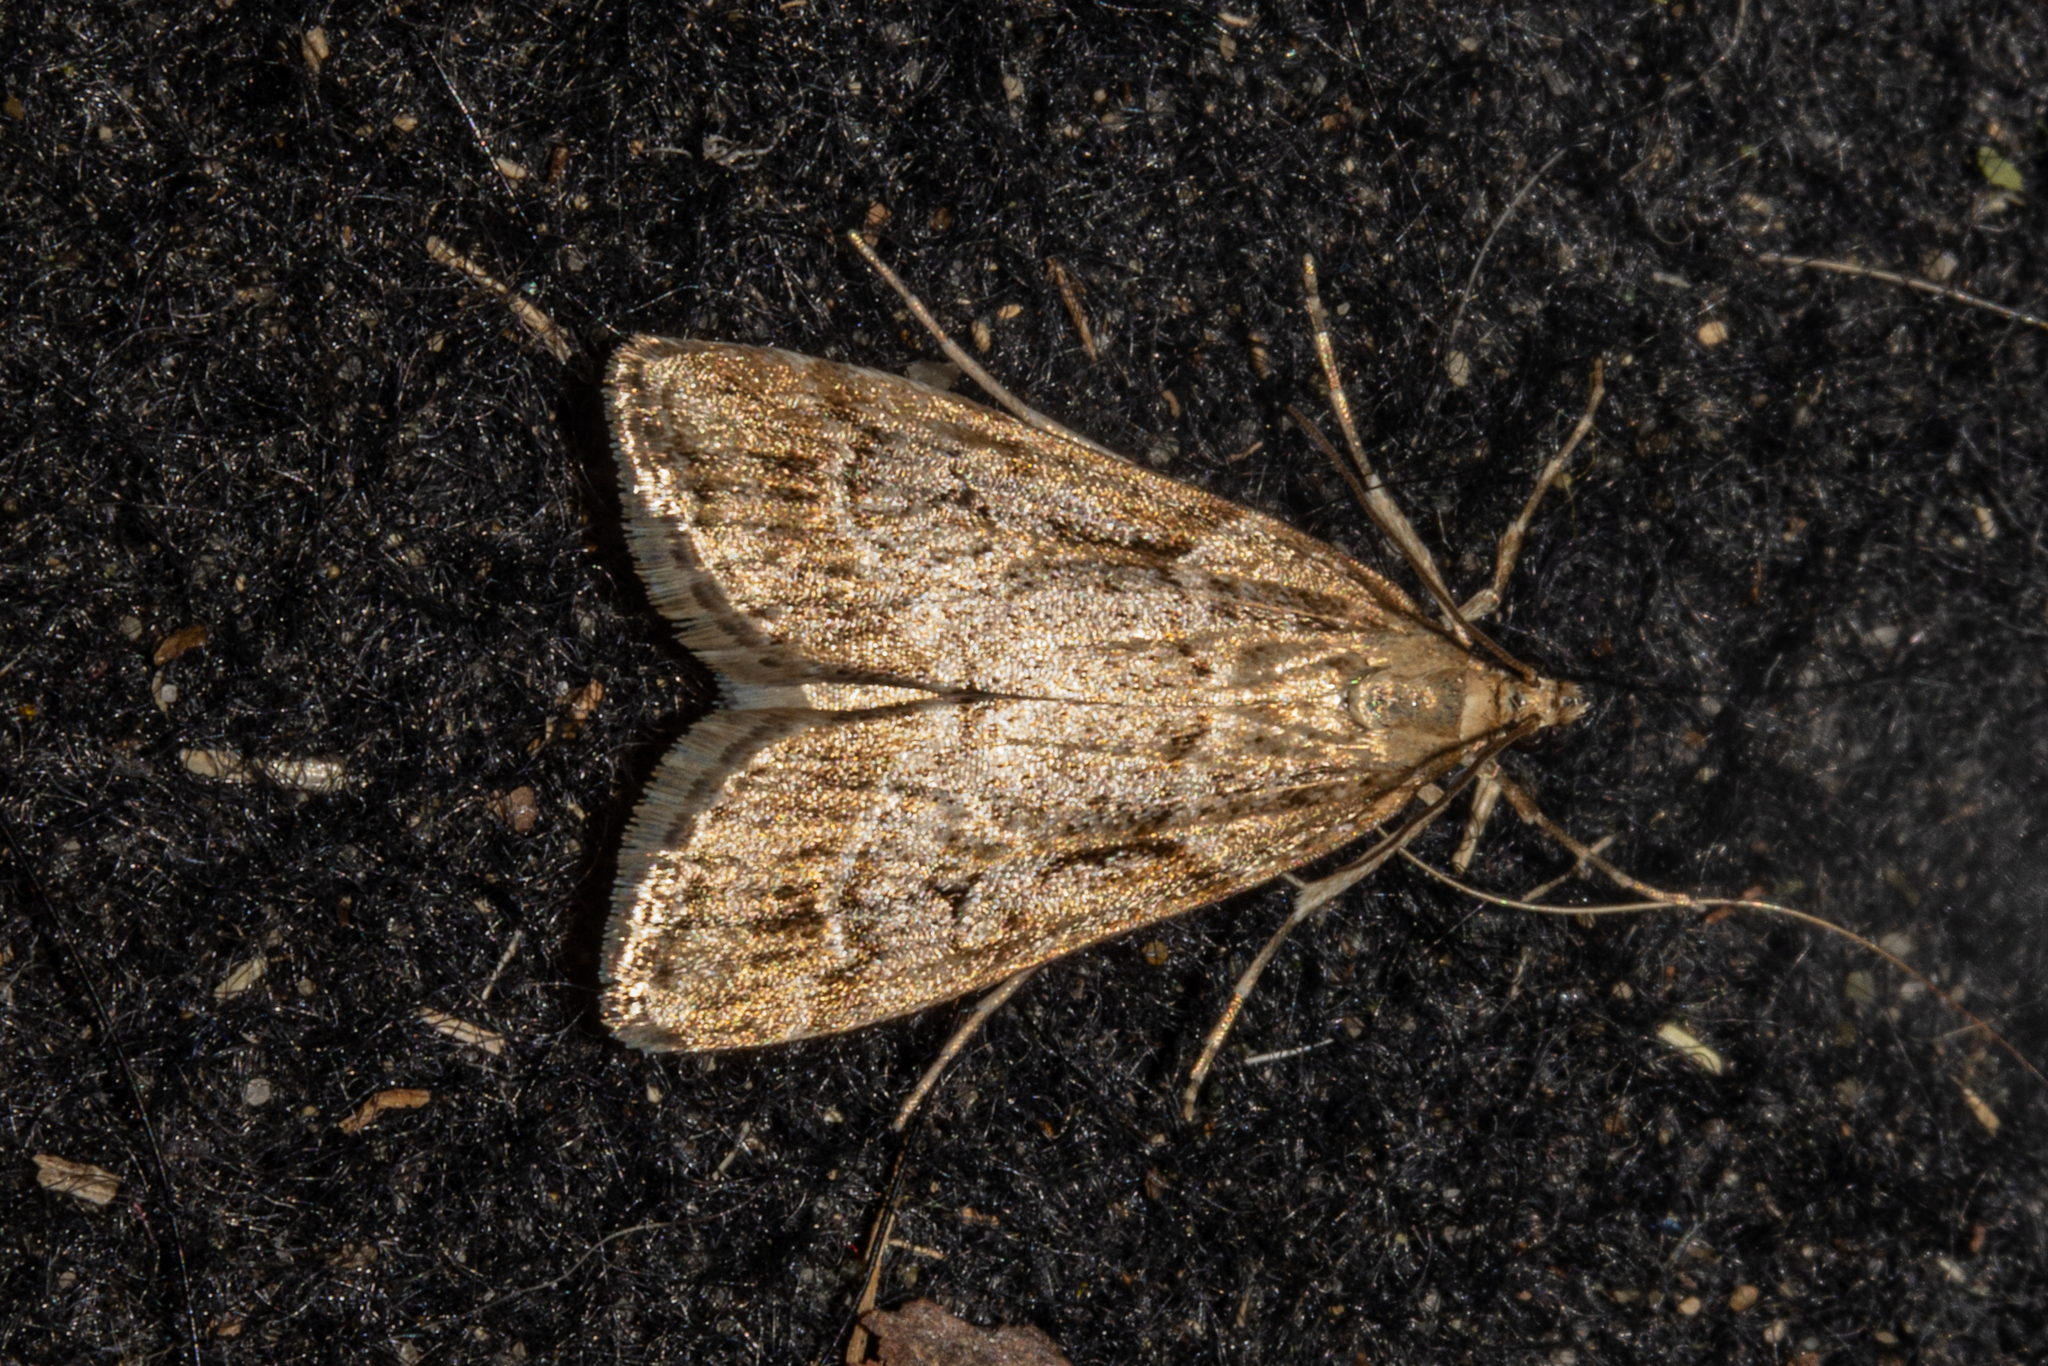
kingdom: Animalia
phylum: Arthropoda
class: Insecta
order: Lepidoptera
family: Crambidae
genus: Eudonia
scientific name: Eudonia chalara
